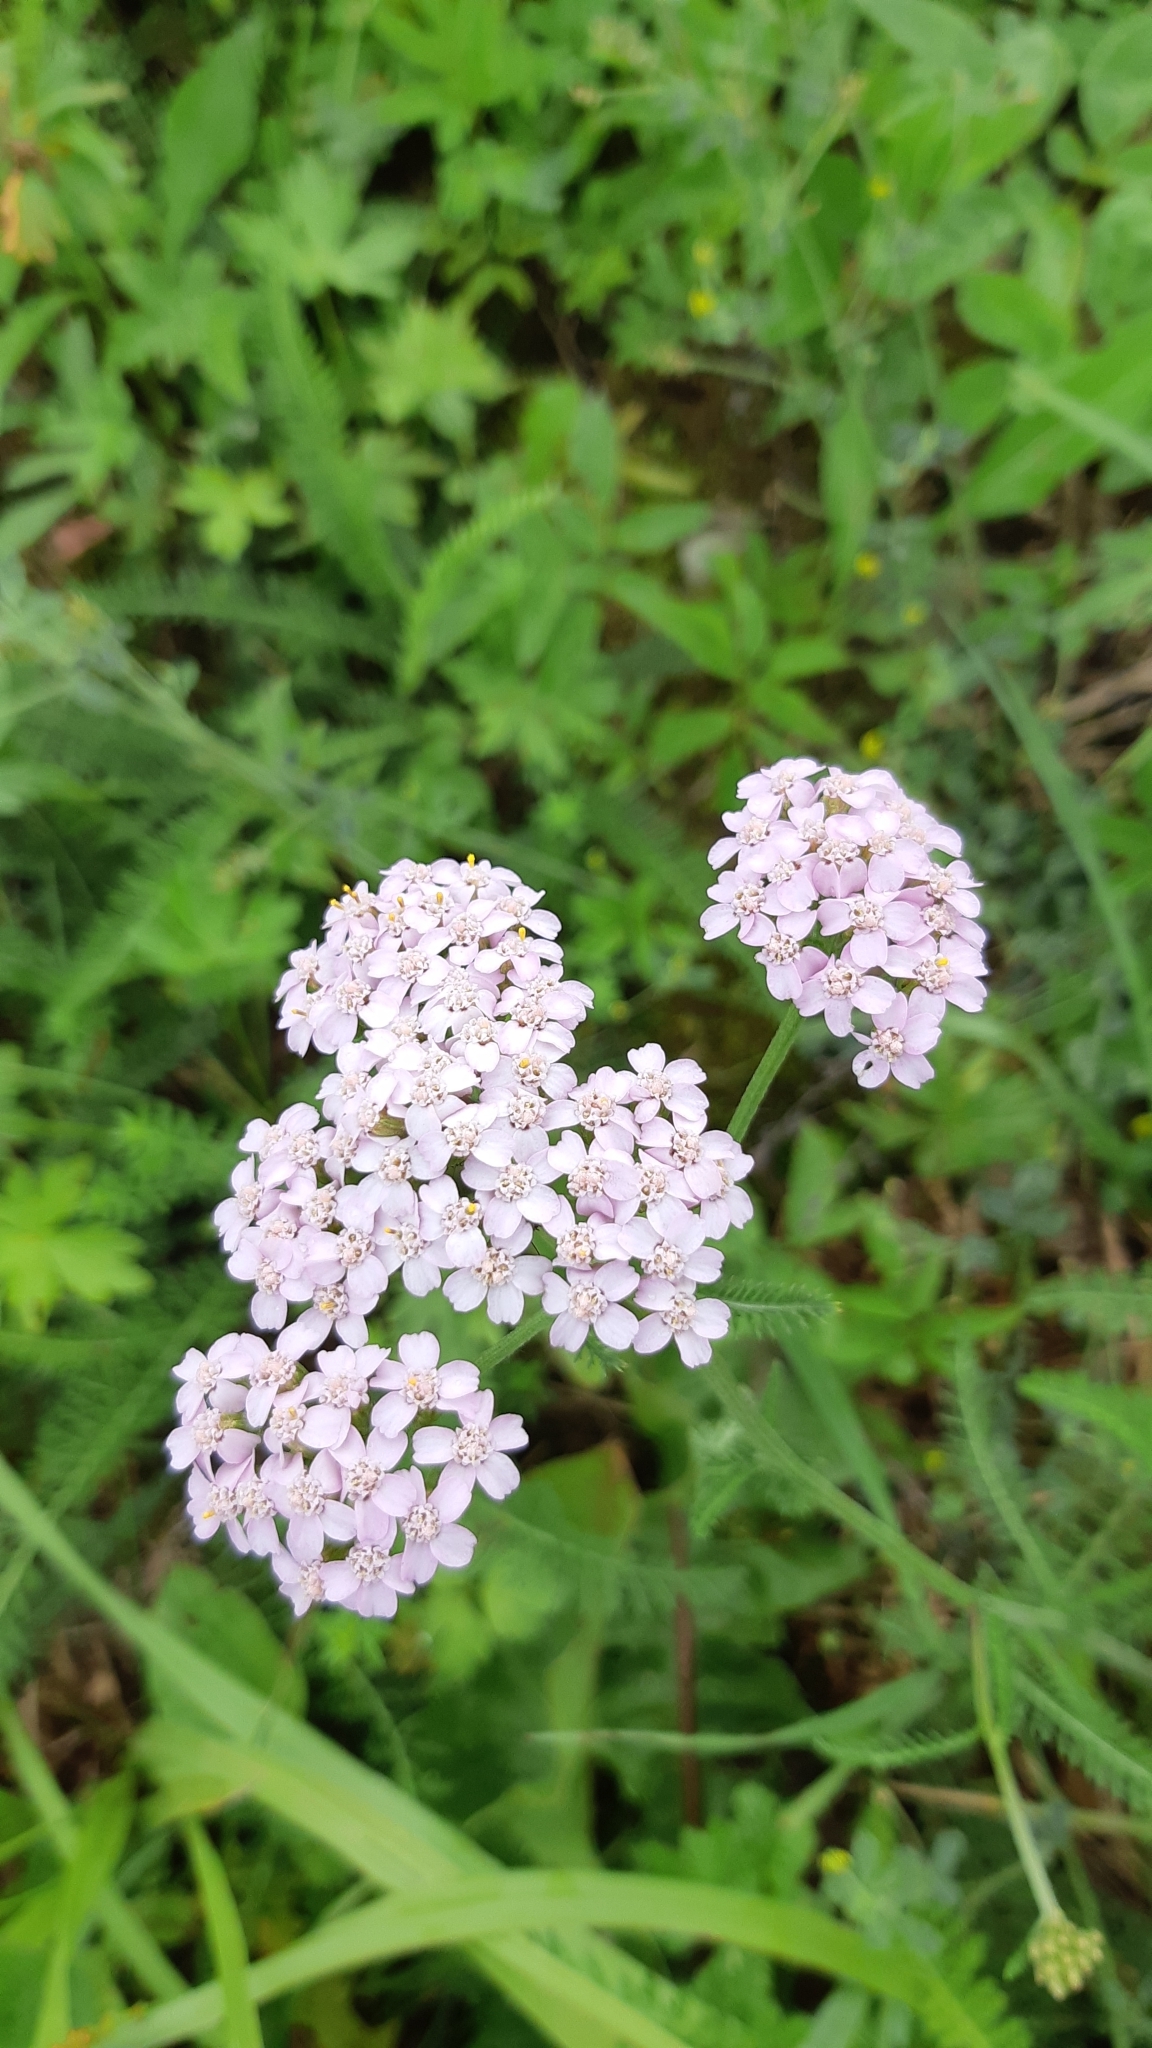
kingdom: Plantae
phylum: Tracheophyta
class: Magnoliopsida
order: Asterales
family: Asteraceae
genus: Achillea
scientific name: Achillea millefolium
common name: Yarrow
